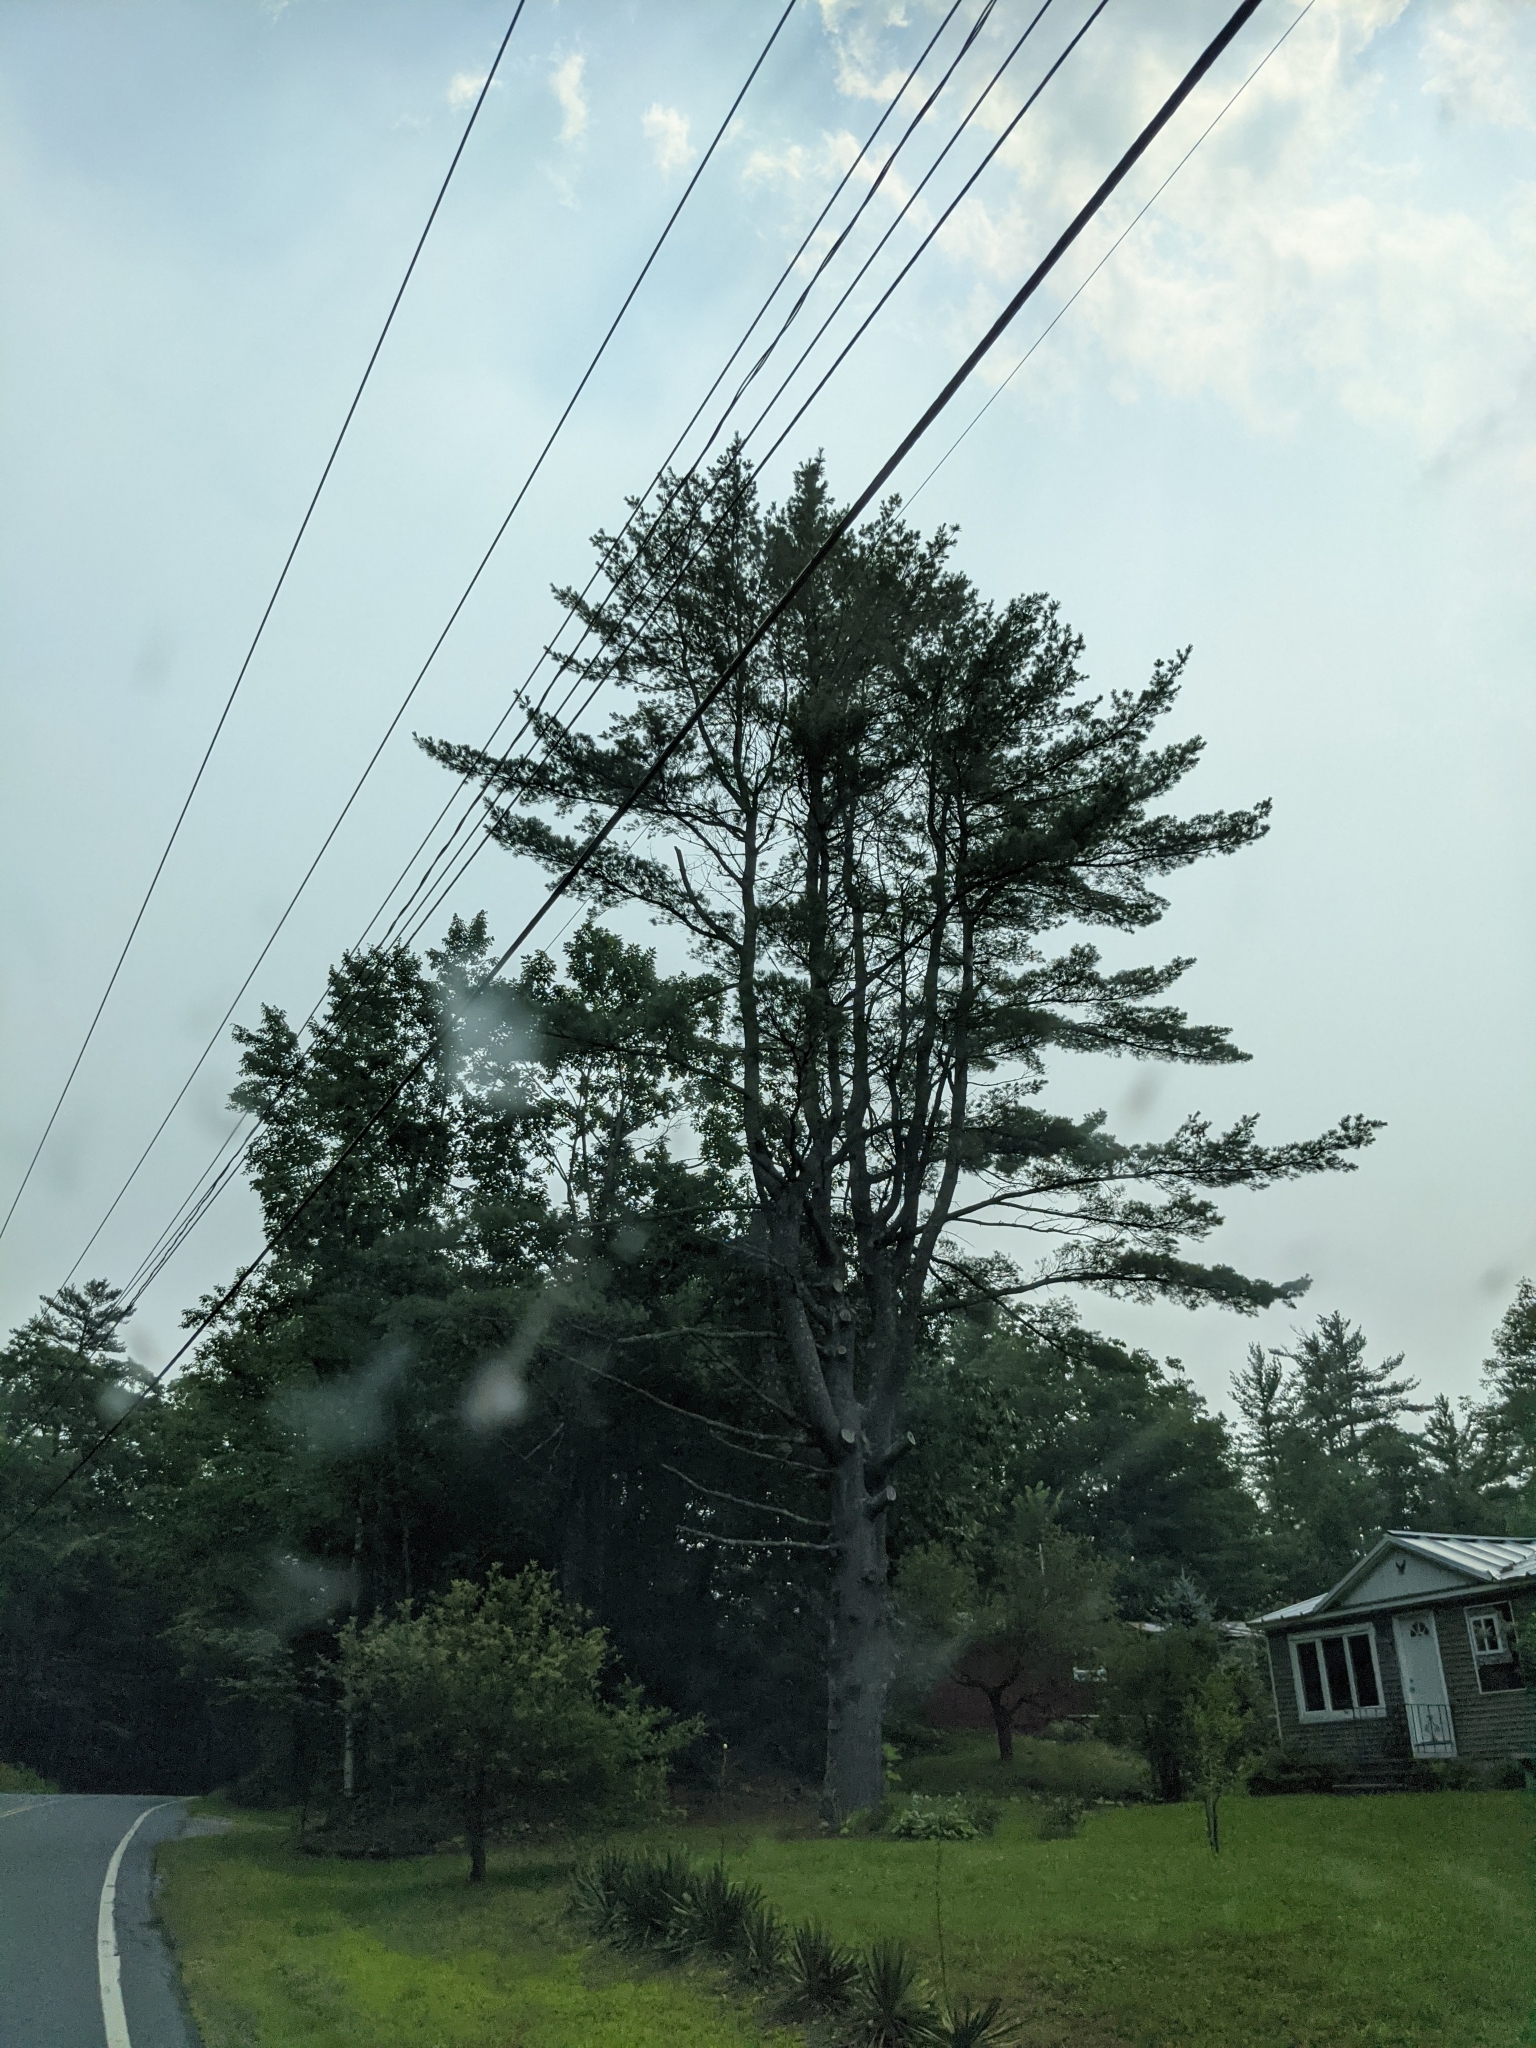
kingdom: Plantae
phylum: Tracheophyta
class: Pinopsida
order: Pinales
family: Pinaceae
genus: Pinus
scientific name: Pinus strobus
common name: Weymouth pine
